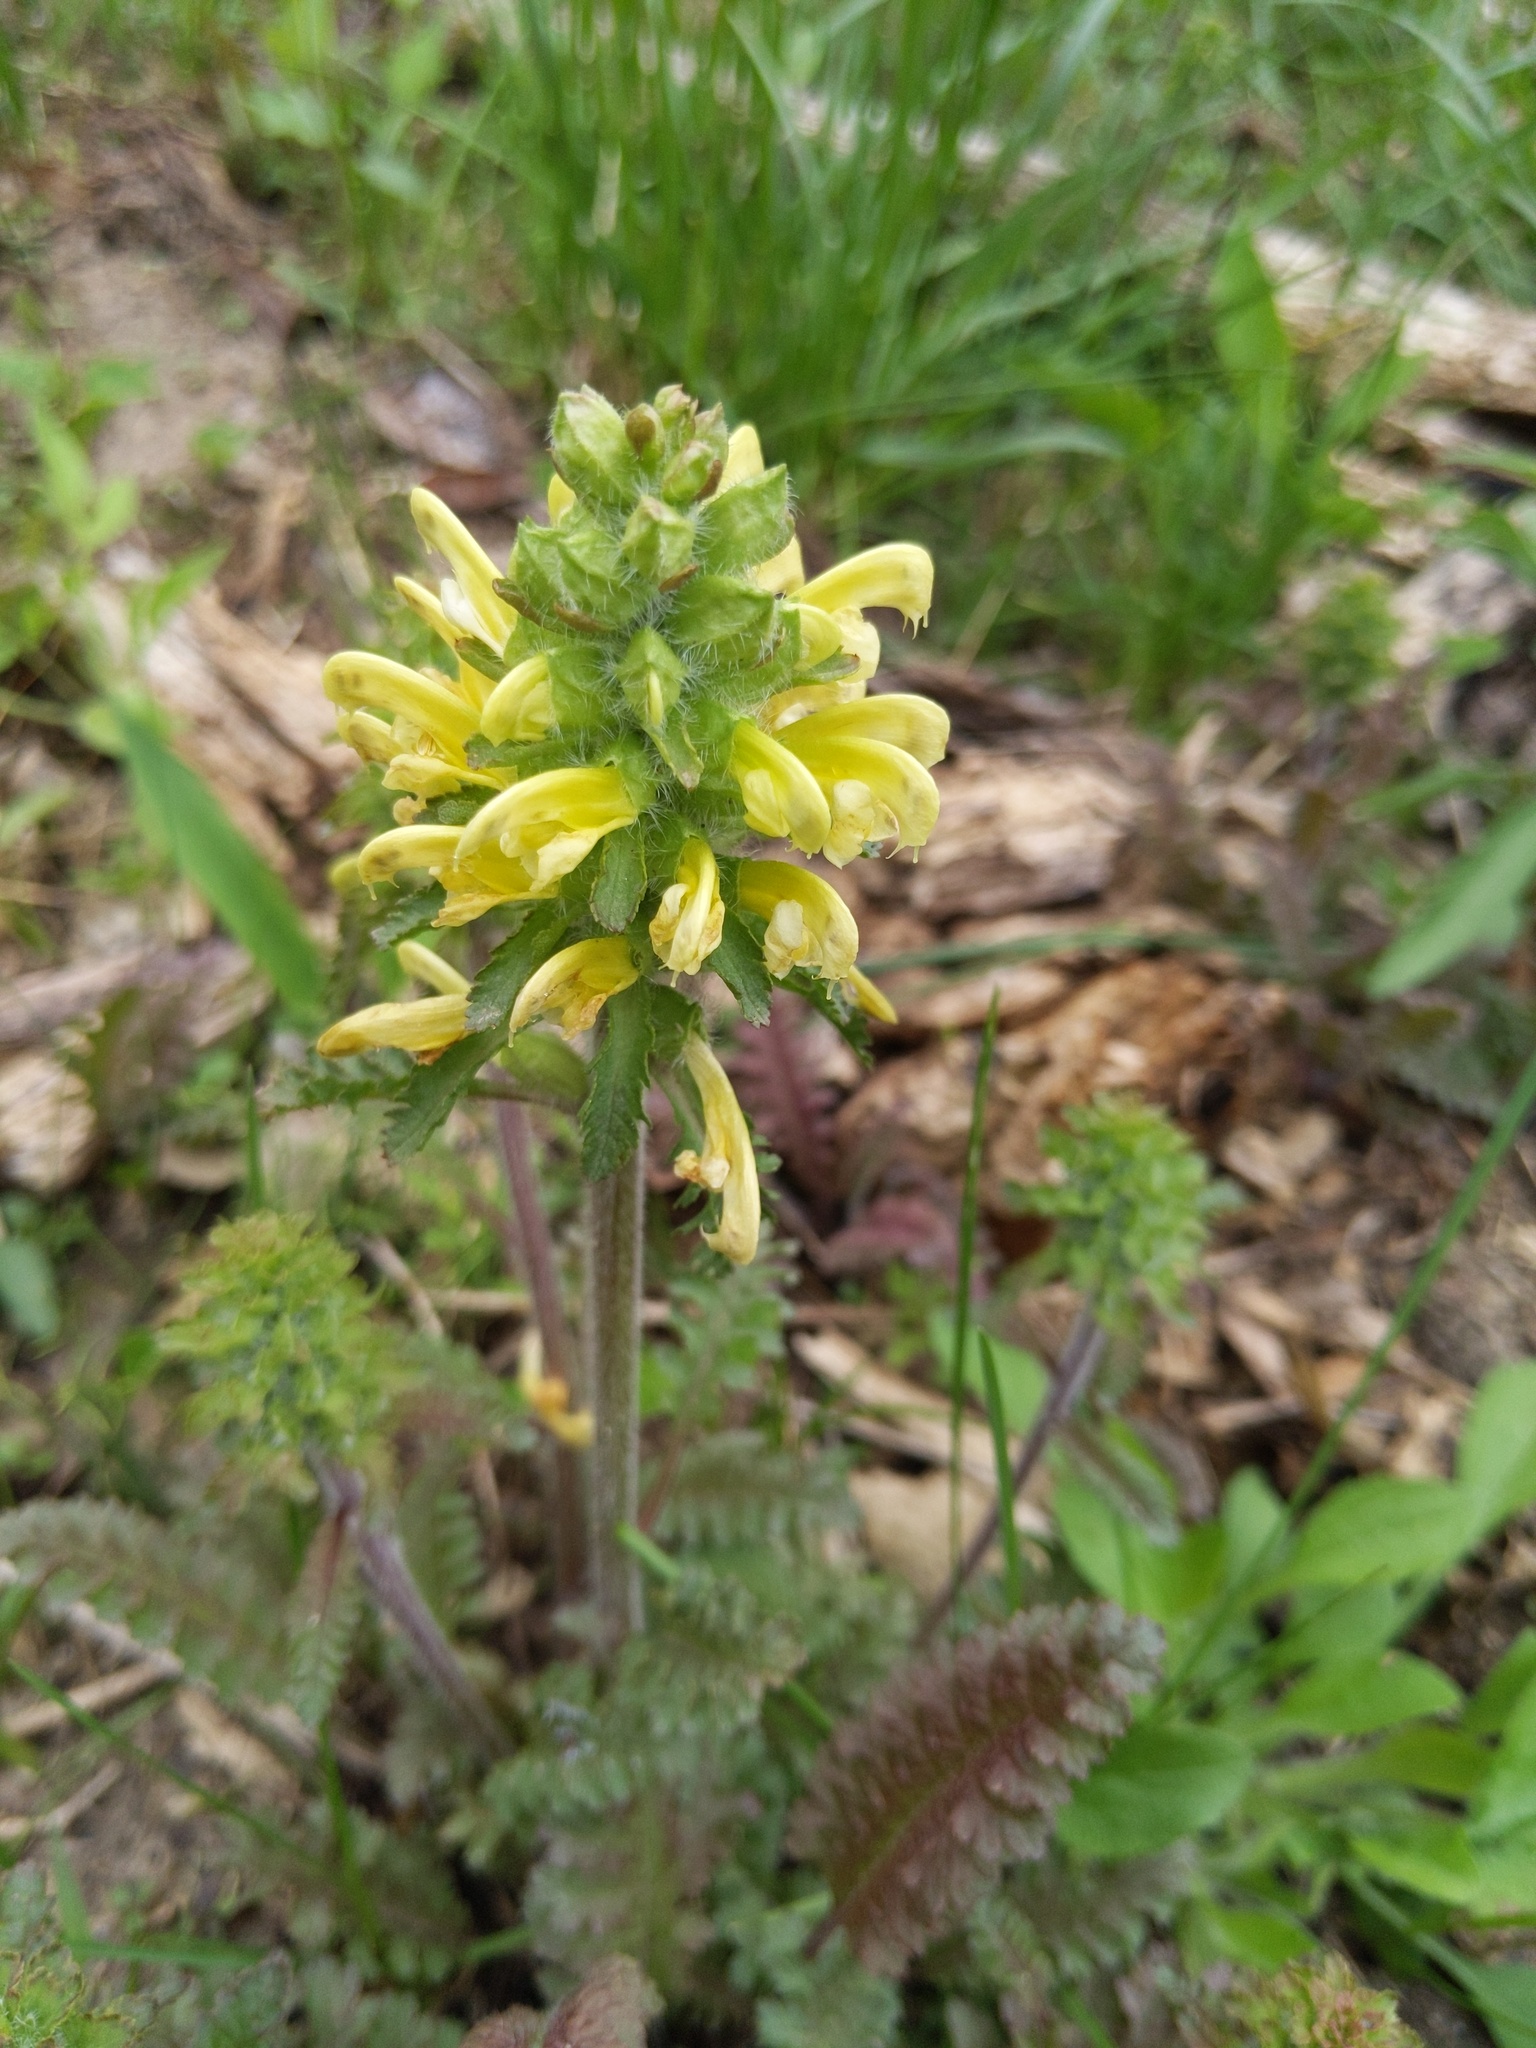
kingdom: Plantae
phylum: Tracheophyta
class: Magnoliopsida
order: Lamiales
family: Orobanchaceae
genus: Pedicularis
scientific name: Pedicularis canadensis
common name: Early lousewort
